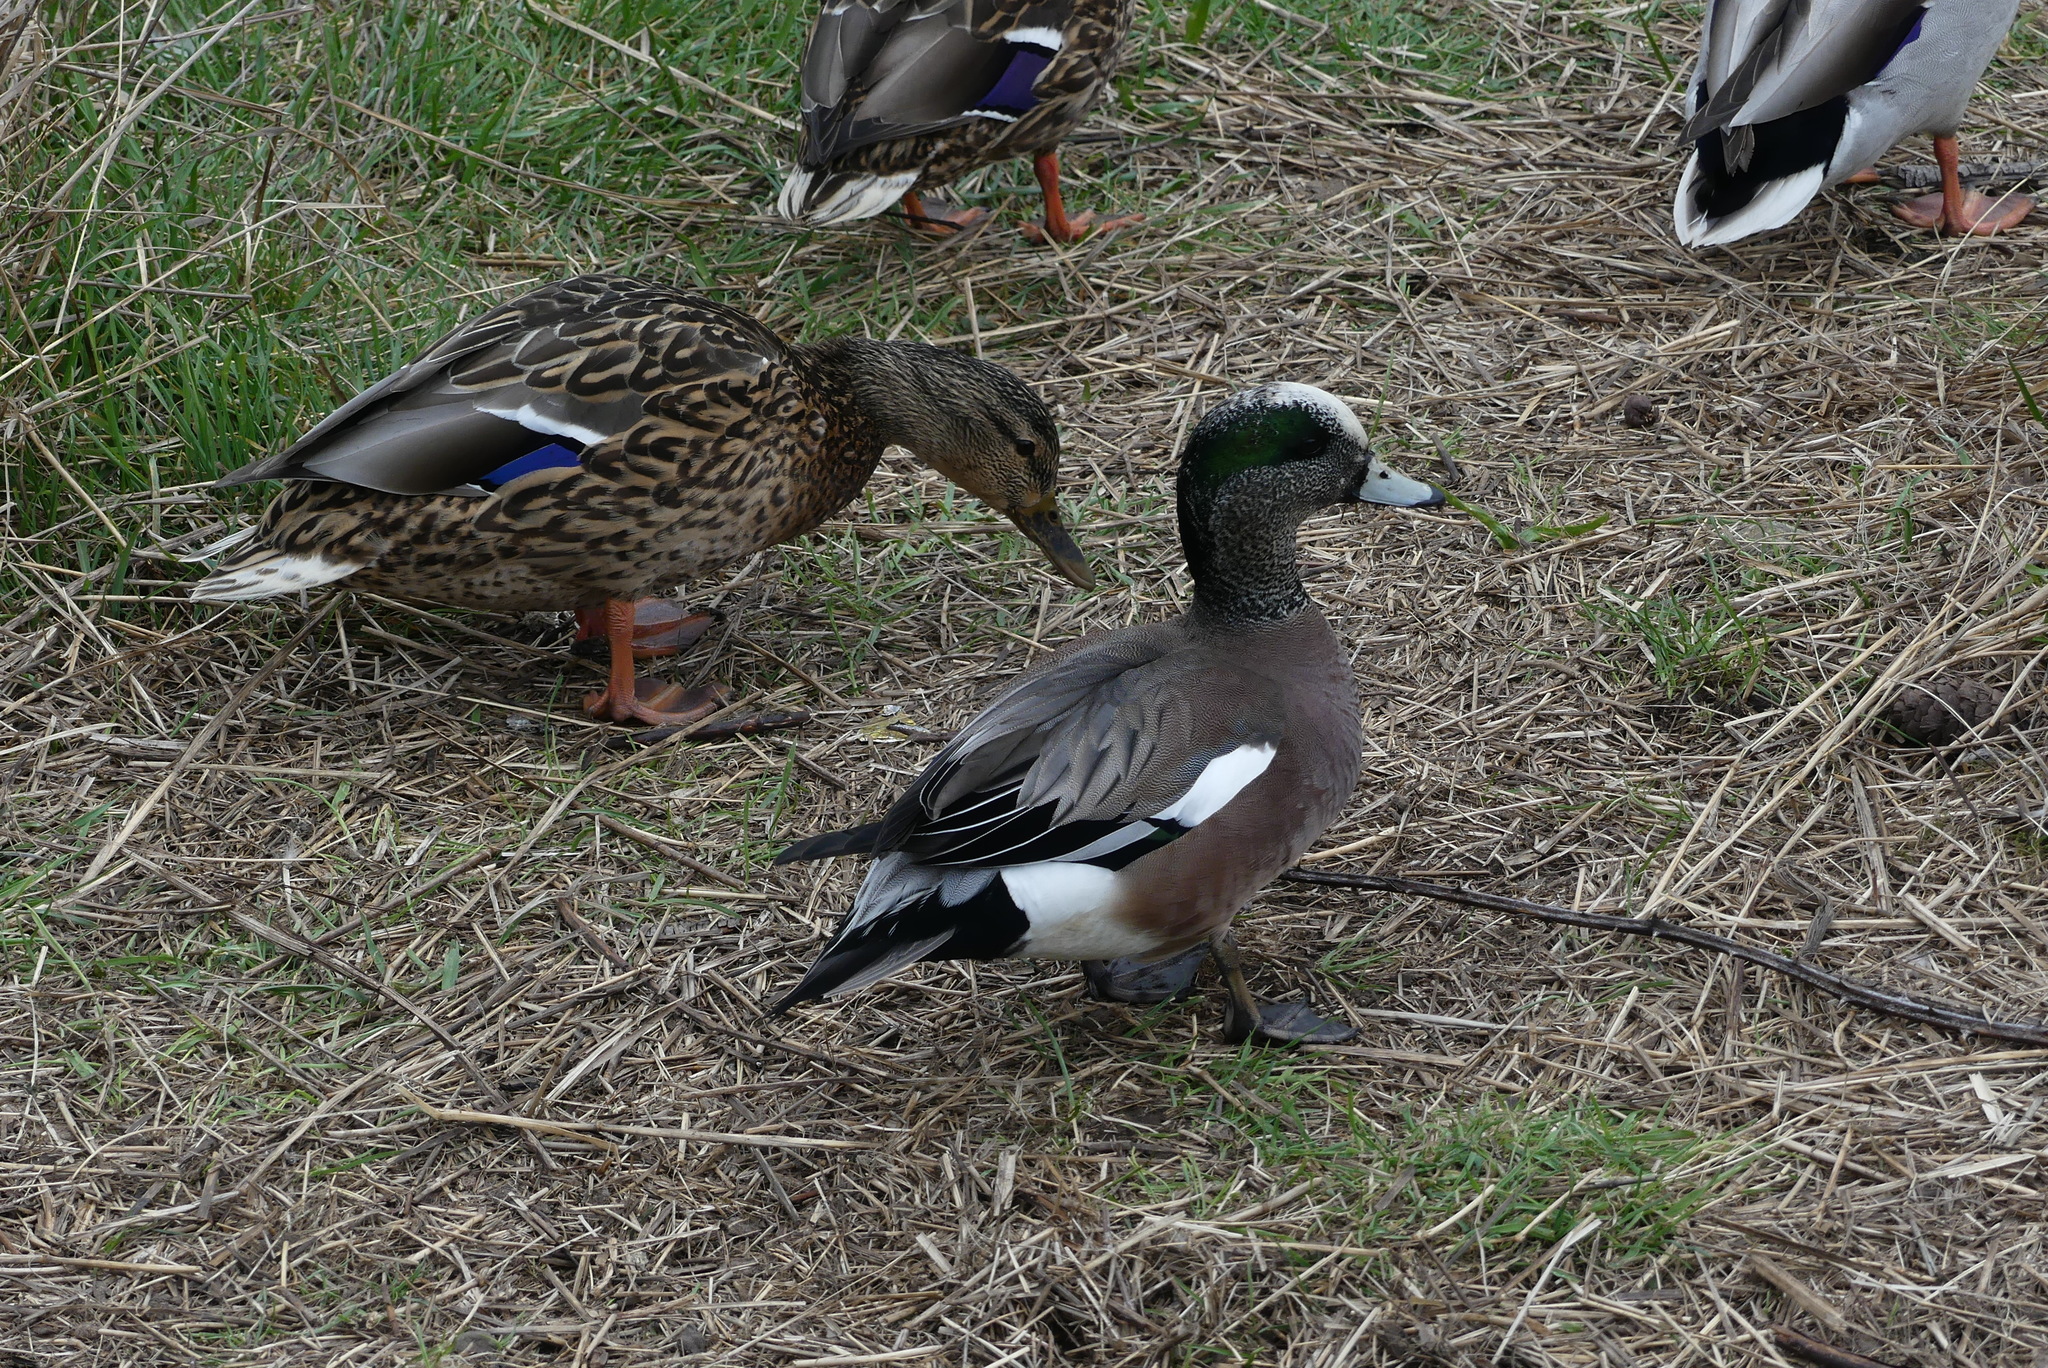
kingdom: Animalia
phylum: Chordata
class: Aves
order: Anseriformes
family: Anatidae
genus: Mareca
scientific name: Mareca americana
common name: American wigeon
